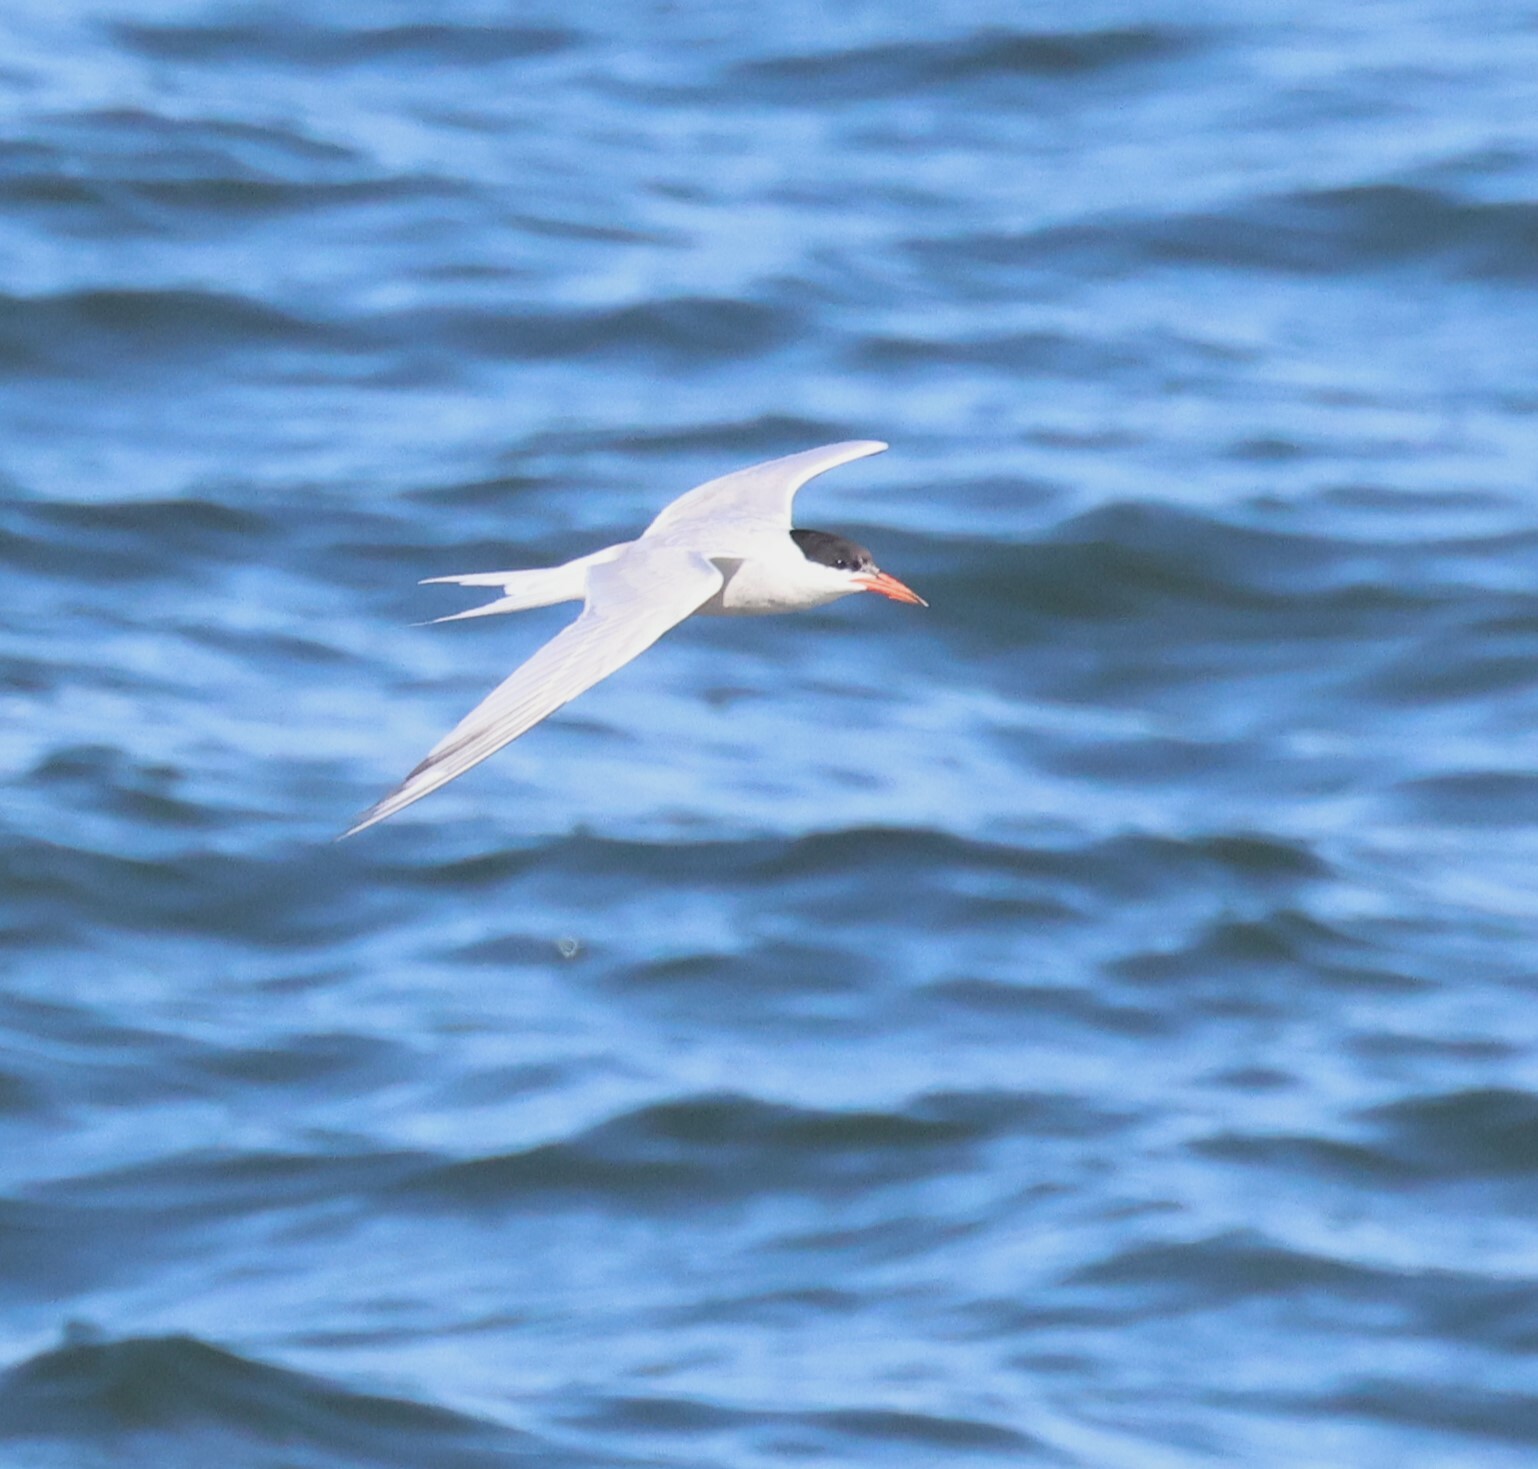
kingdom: Animalia
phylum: Chordata
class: Aves
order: Charadriiformes
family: Laridae
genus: Sterna
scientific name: Sterna hirundo
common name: Common tern
